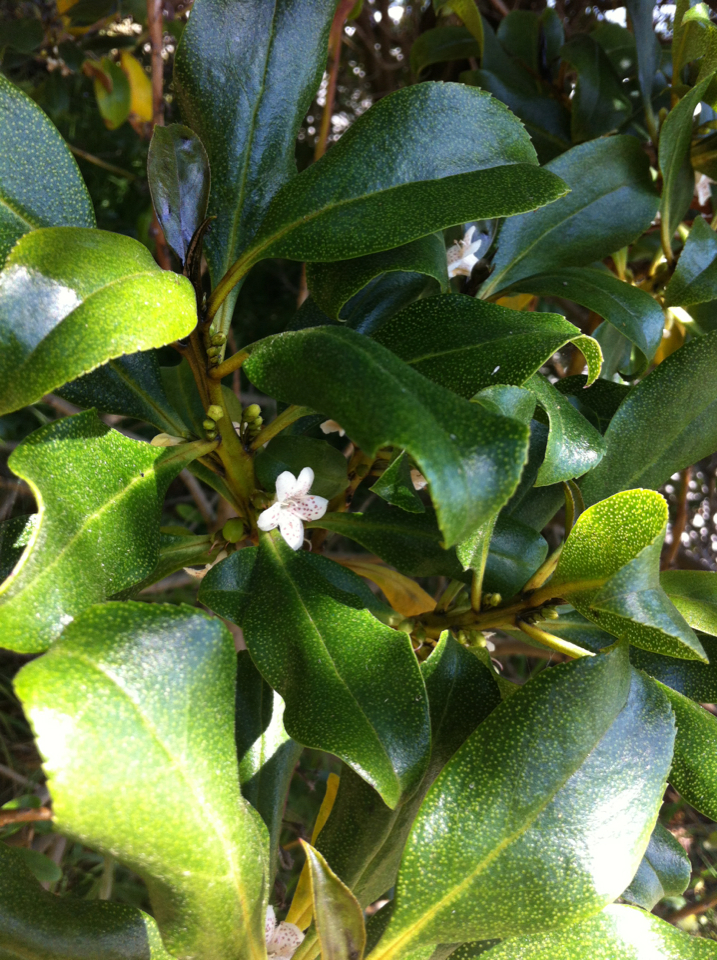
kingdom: Plantae
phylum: Tracheophyta
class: Magnoliopsida
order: Lamiales
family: Scrophulariaceae
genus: Myoporum
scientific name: Myoporum laetum
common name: Ngaio tree
